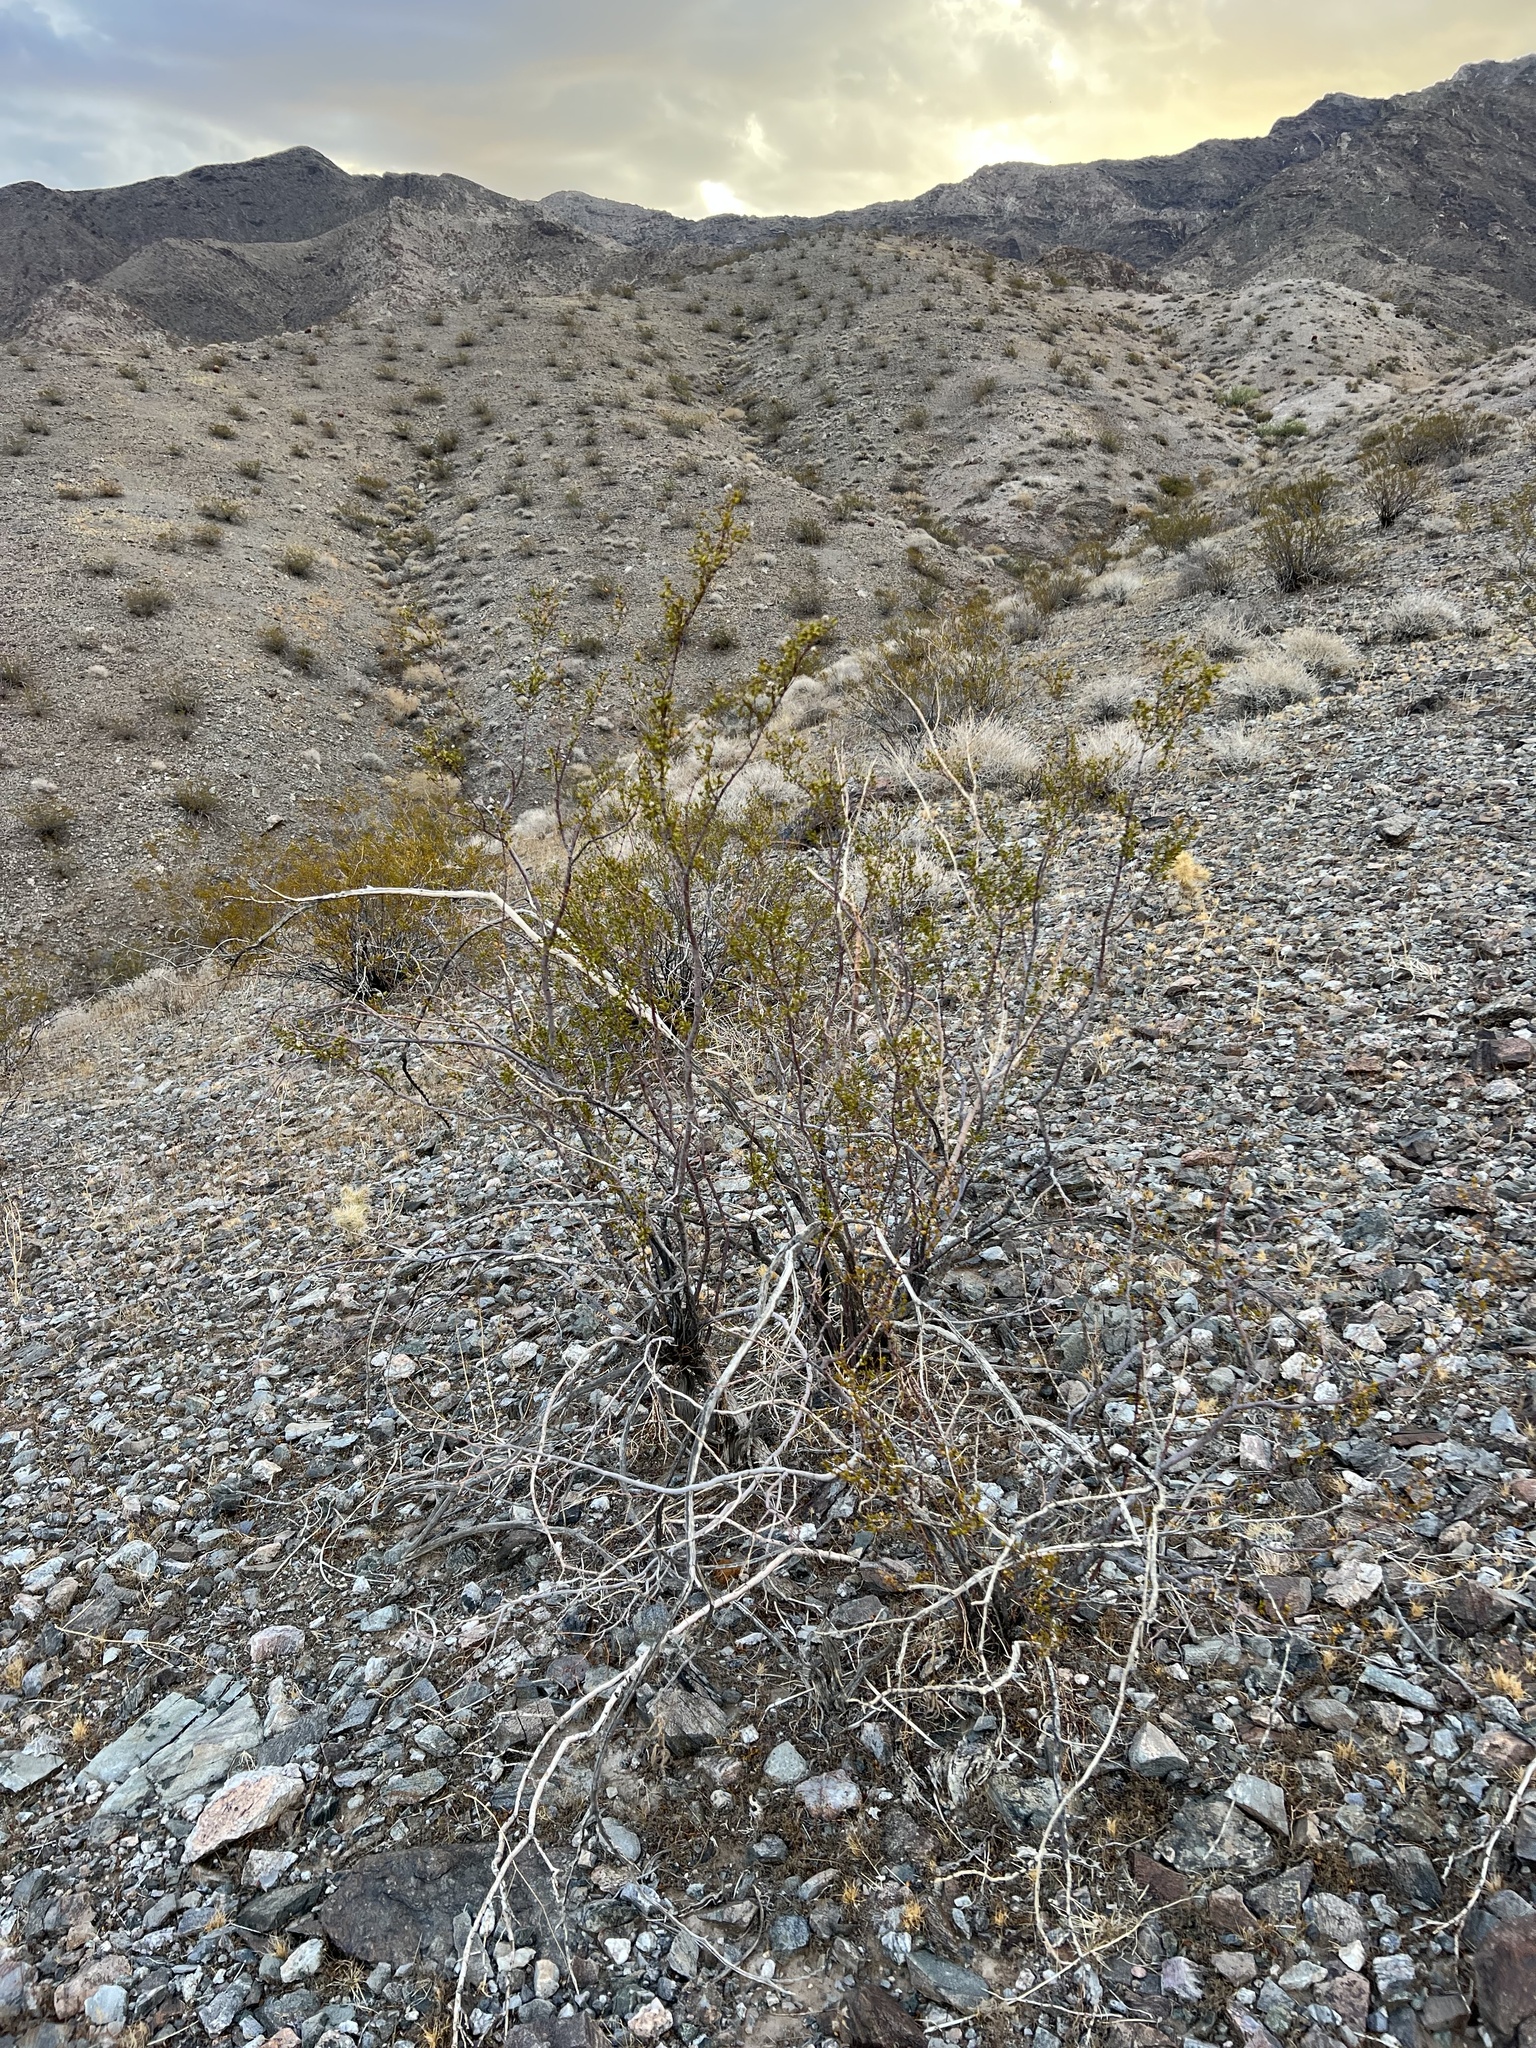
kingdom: Plantae
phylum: Tracheophyta
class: Magnoliopsida
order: Zygophyllales
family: Zygophyllaceae
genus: Larrea
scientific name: Larrea tridentata
